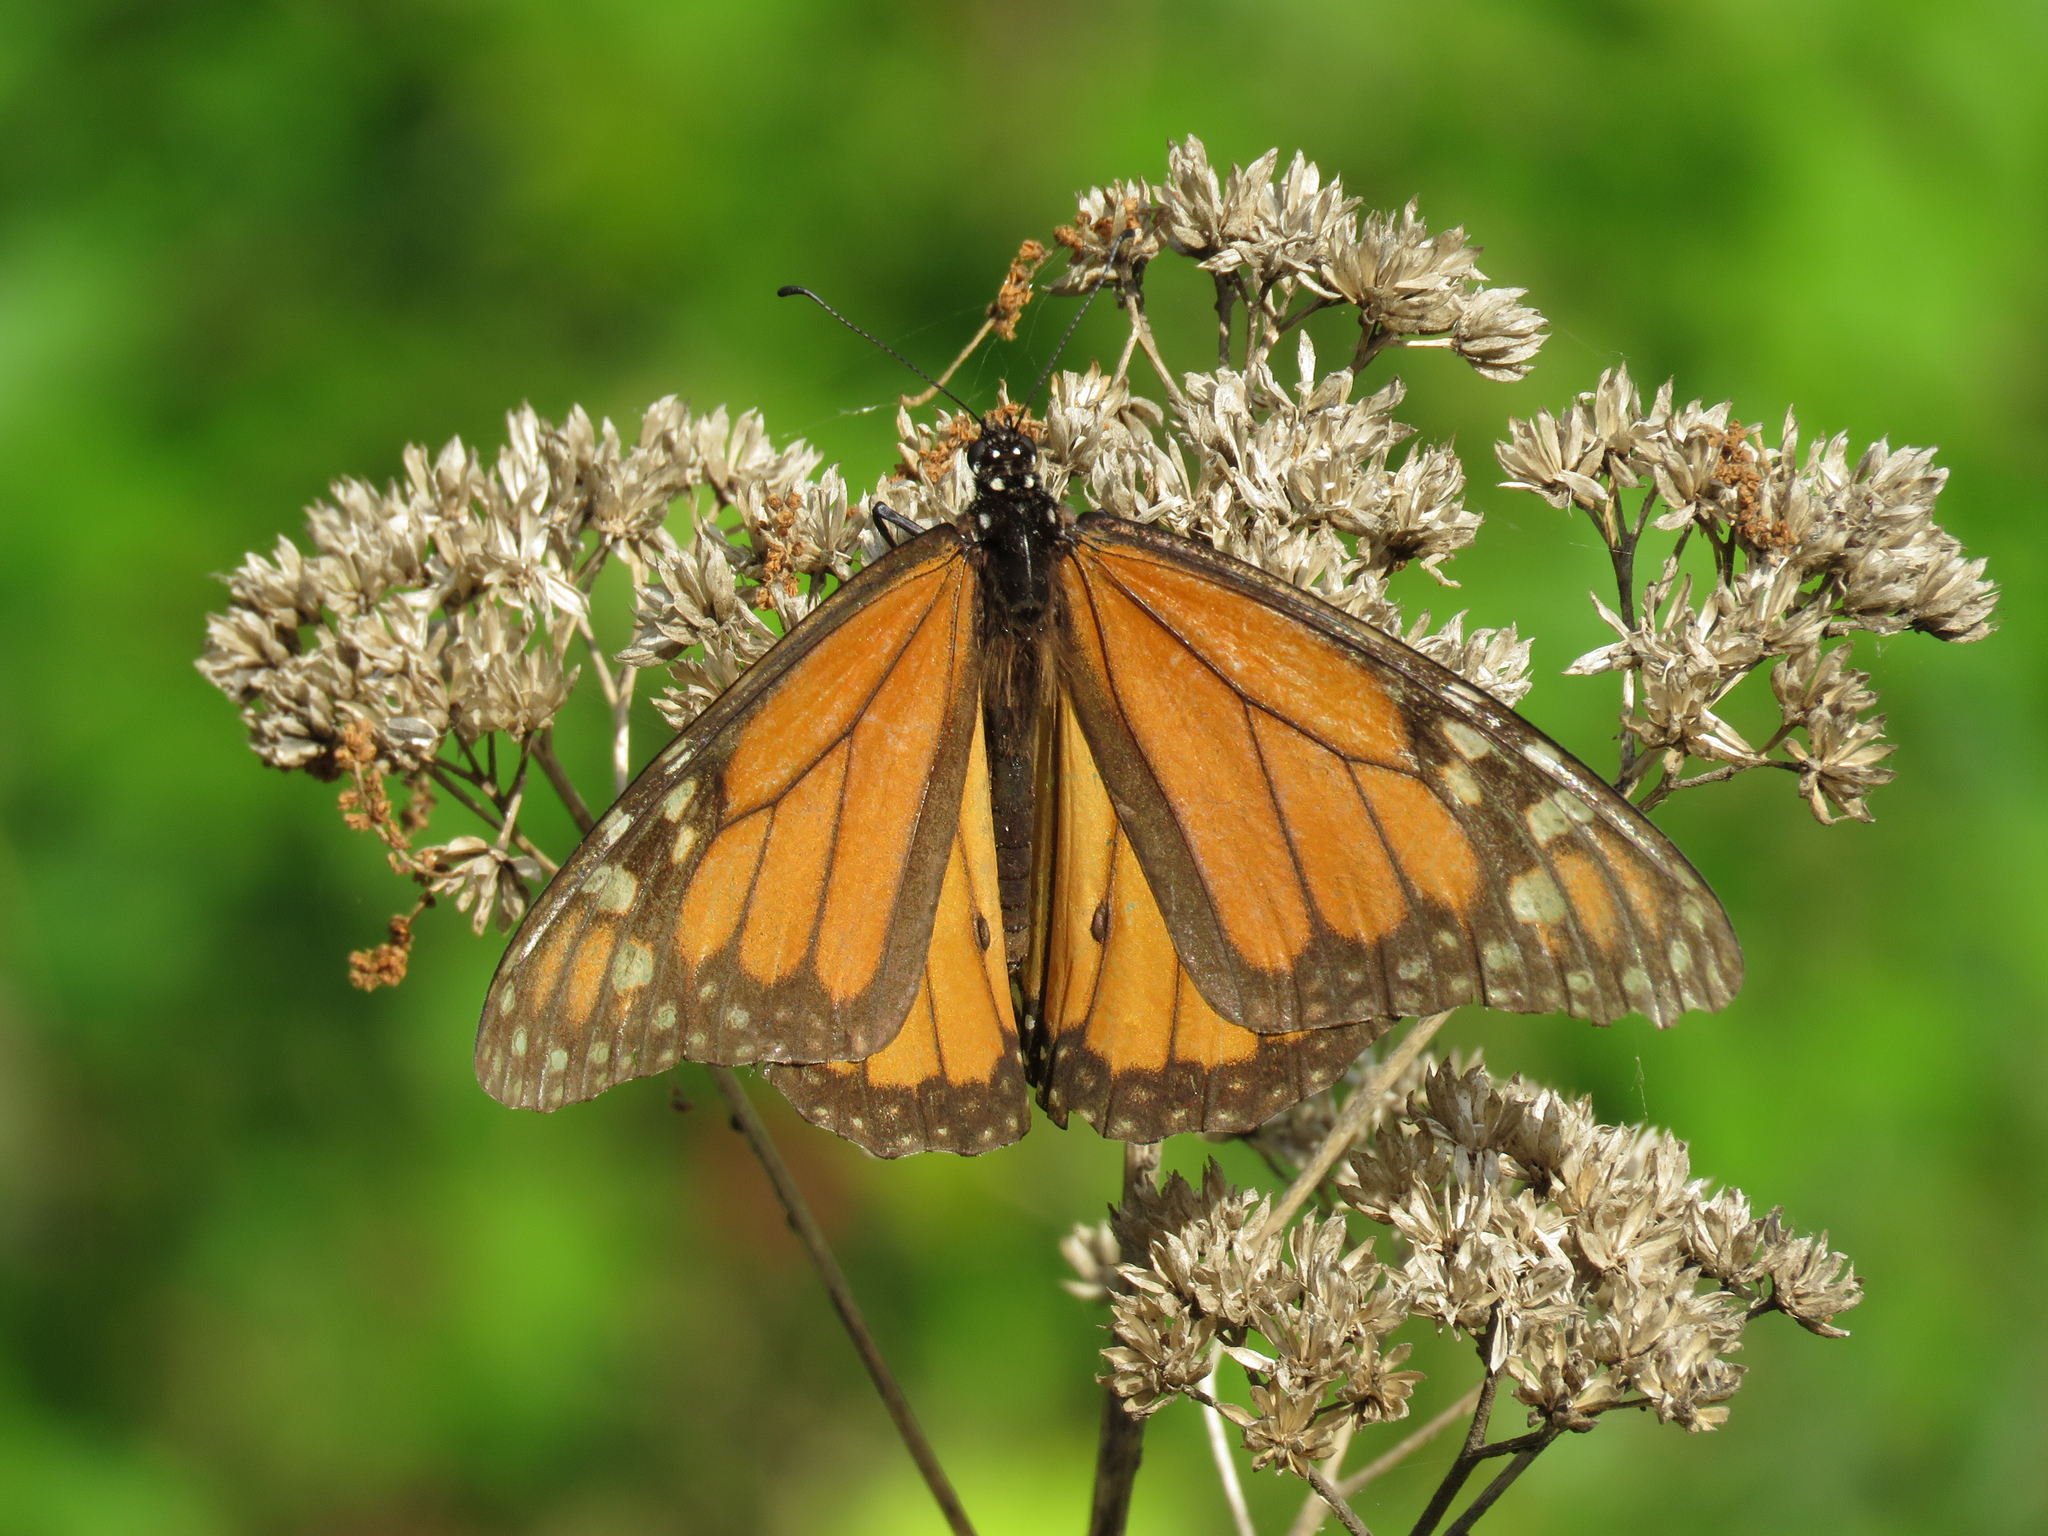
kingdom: Animalia
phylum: Arthropoda
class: Insecta
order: Lepidoptera
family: Nymphalidae
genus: Danaus
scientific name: Danaus plexippus
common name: Monarch
